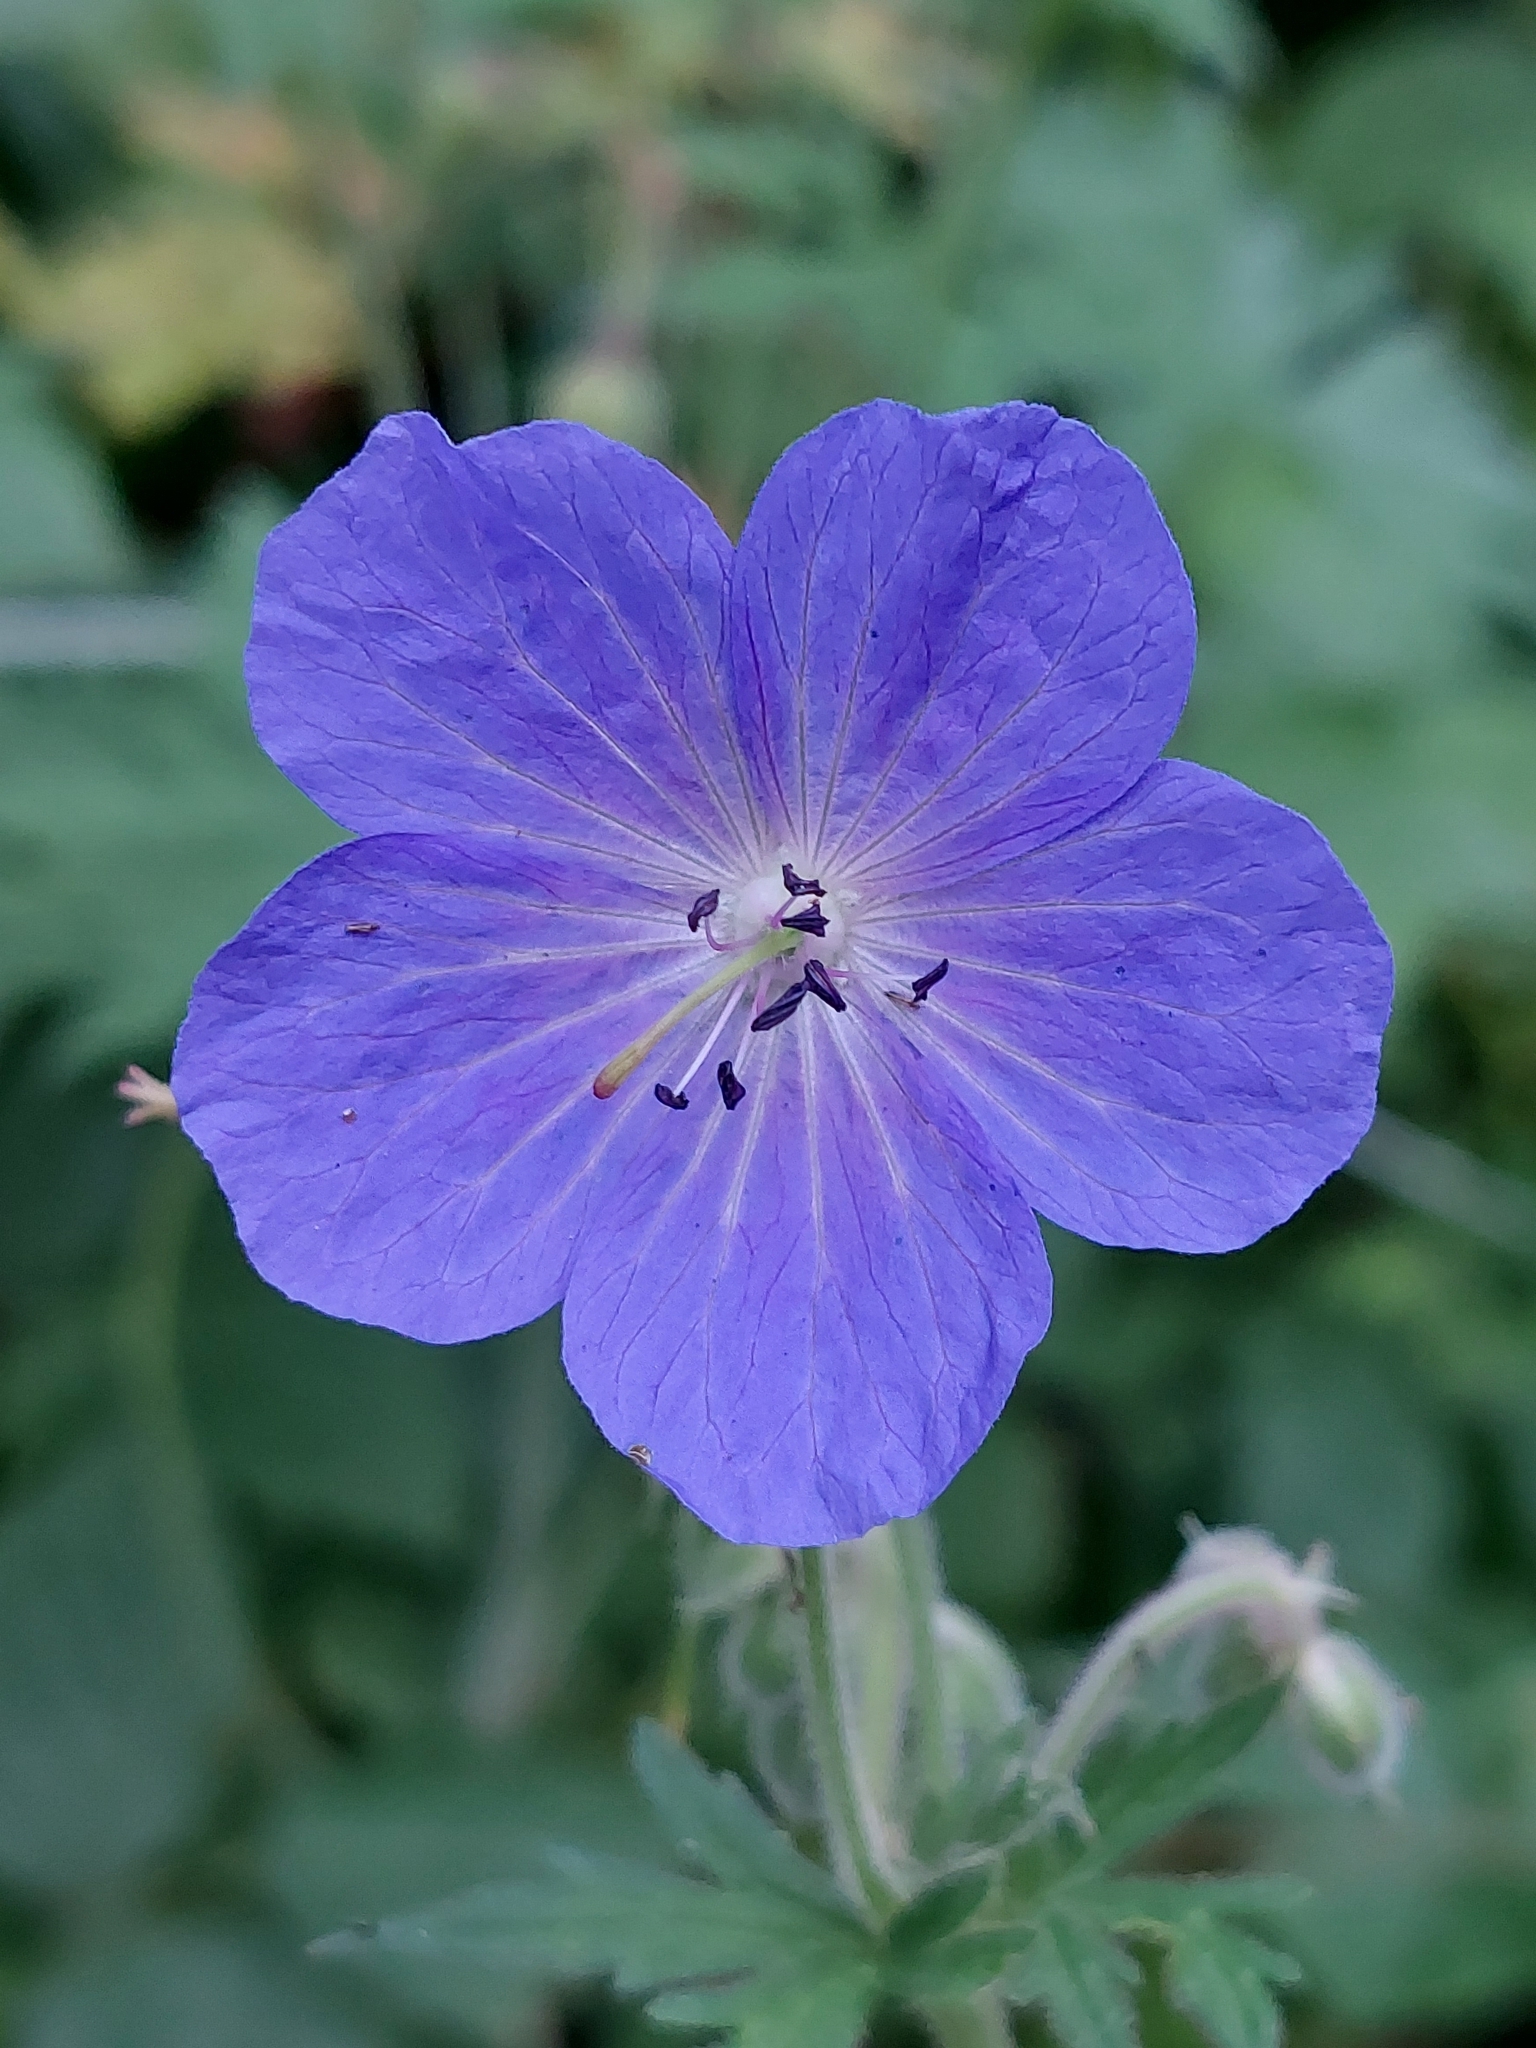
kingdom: Plantae
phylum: Tracheophyta
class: Magnoliopsida
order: Geraniales
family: Geraniaceae
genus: Geranium
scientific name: Geranium pratense
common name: Meadow crane's-bill
